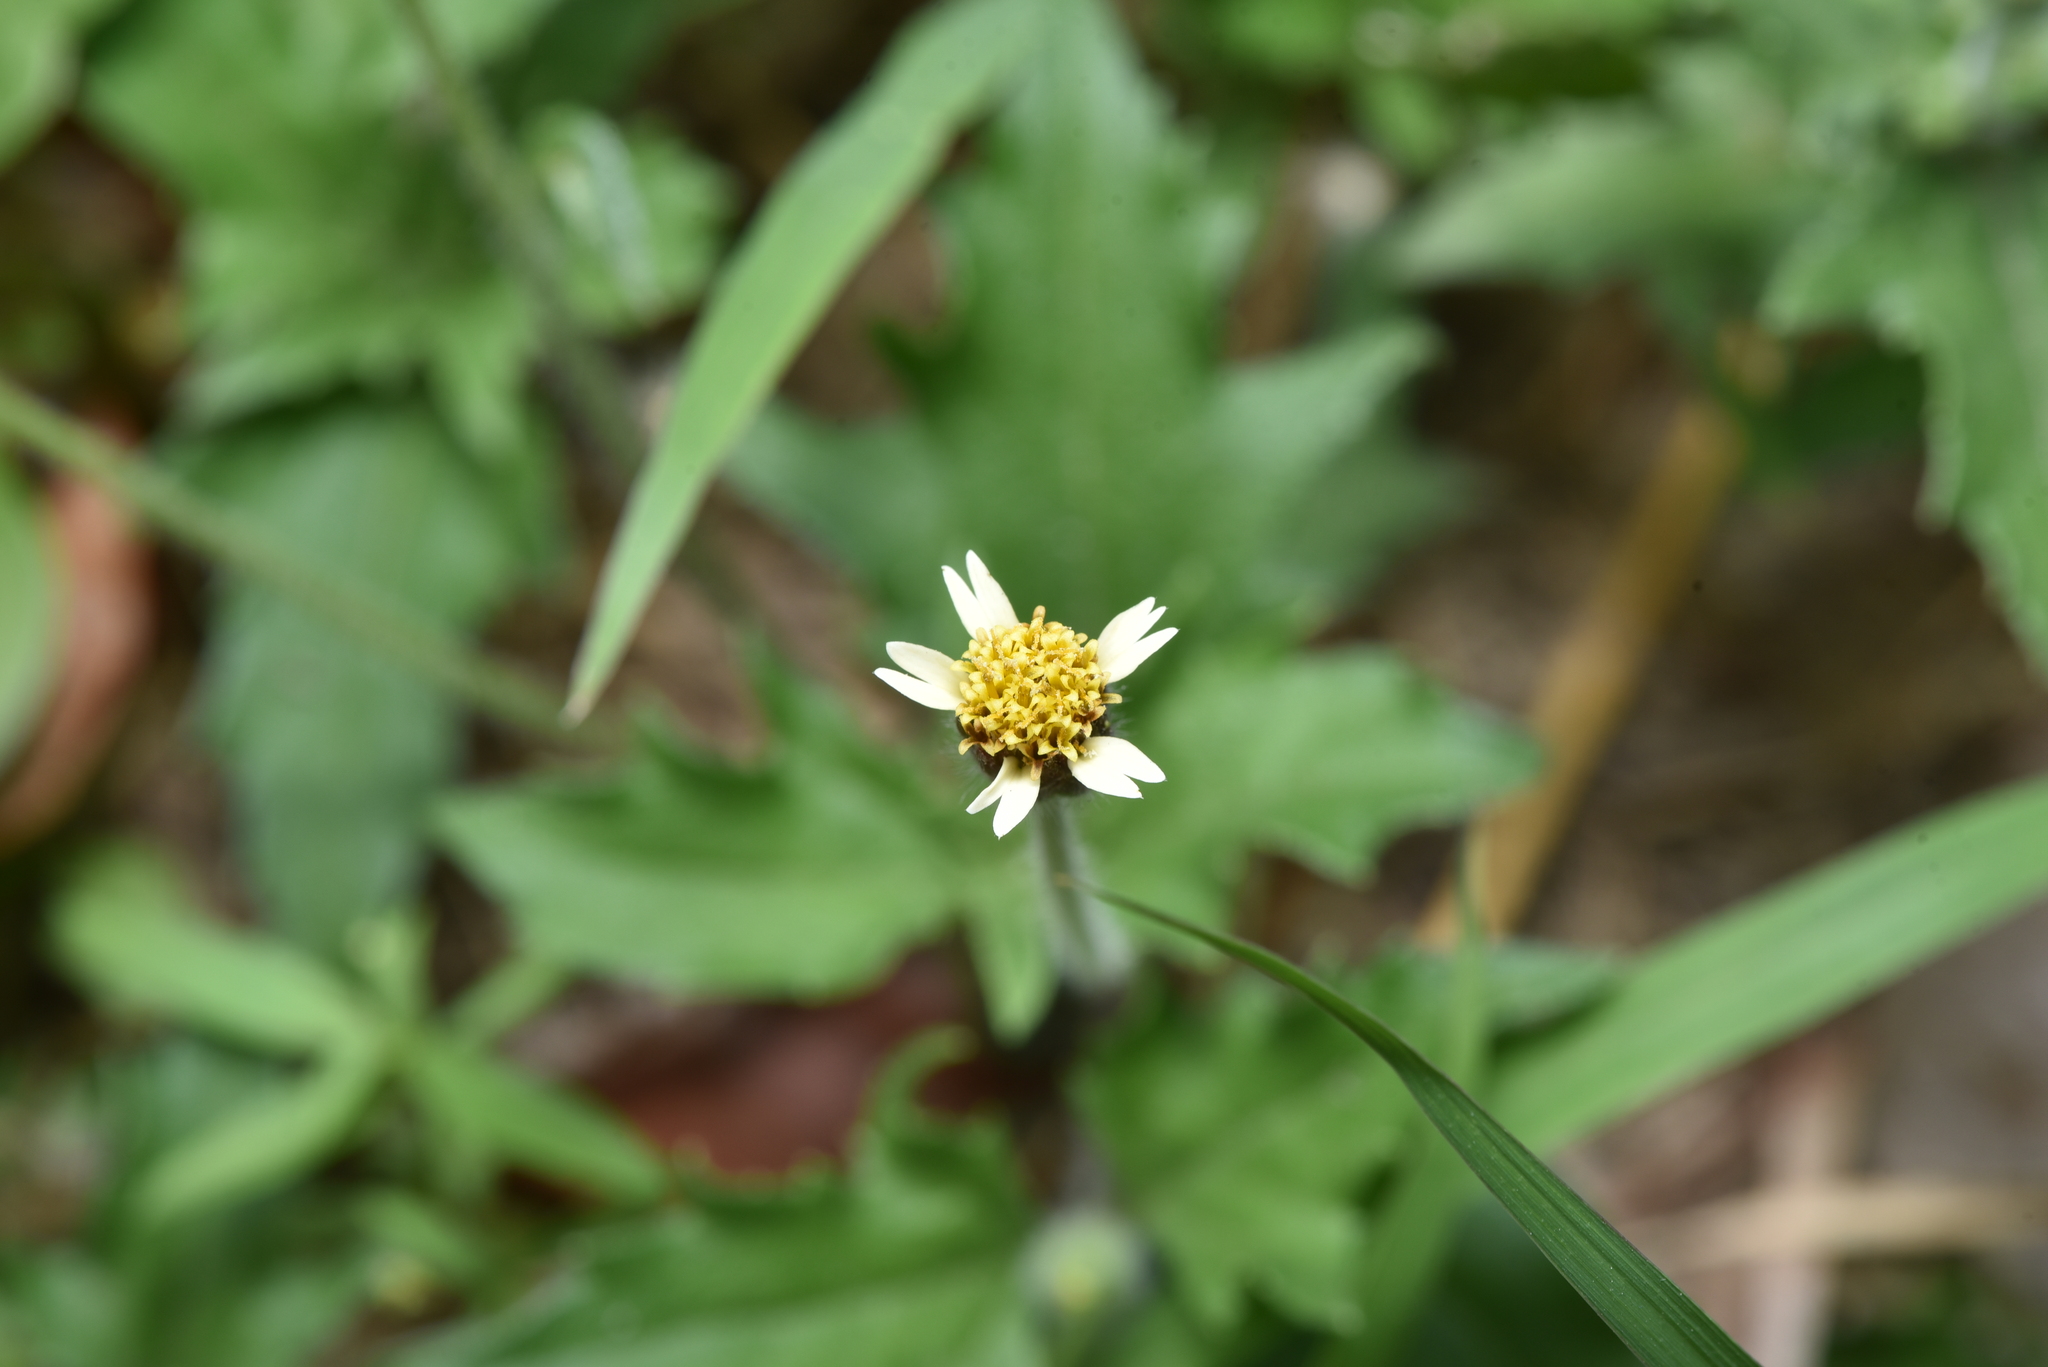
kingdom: Plantae
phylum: Tracheophyta
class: Magnoliopsida
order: Asterales
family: Asteraceae
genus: Tridax
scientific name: Tridax procumbens
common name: Coatbuttons
